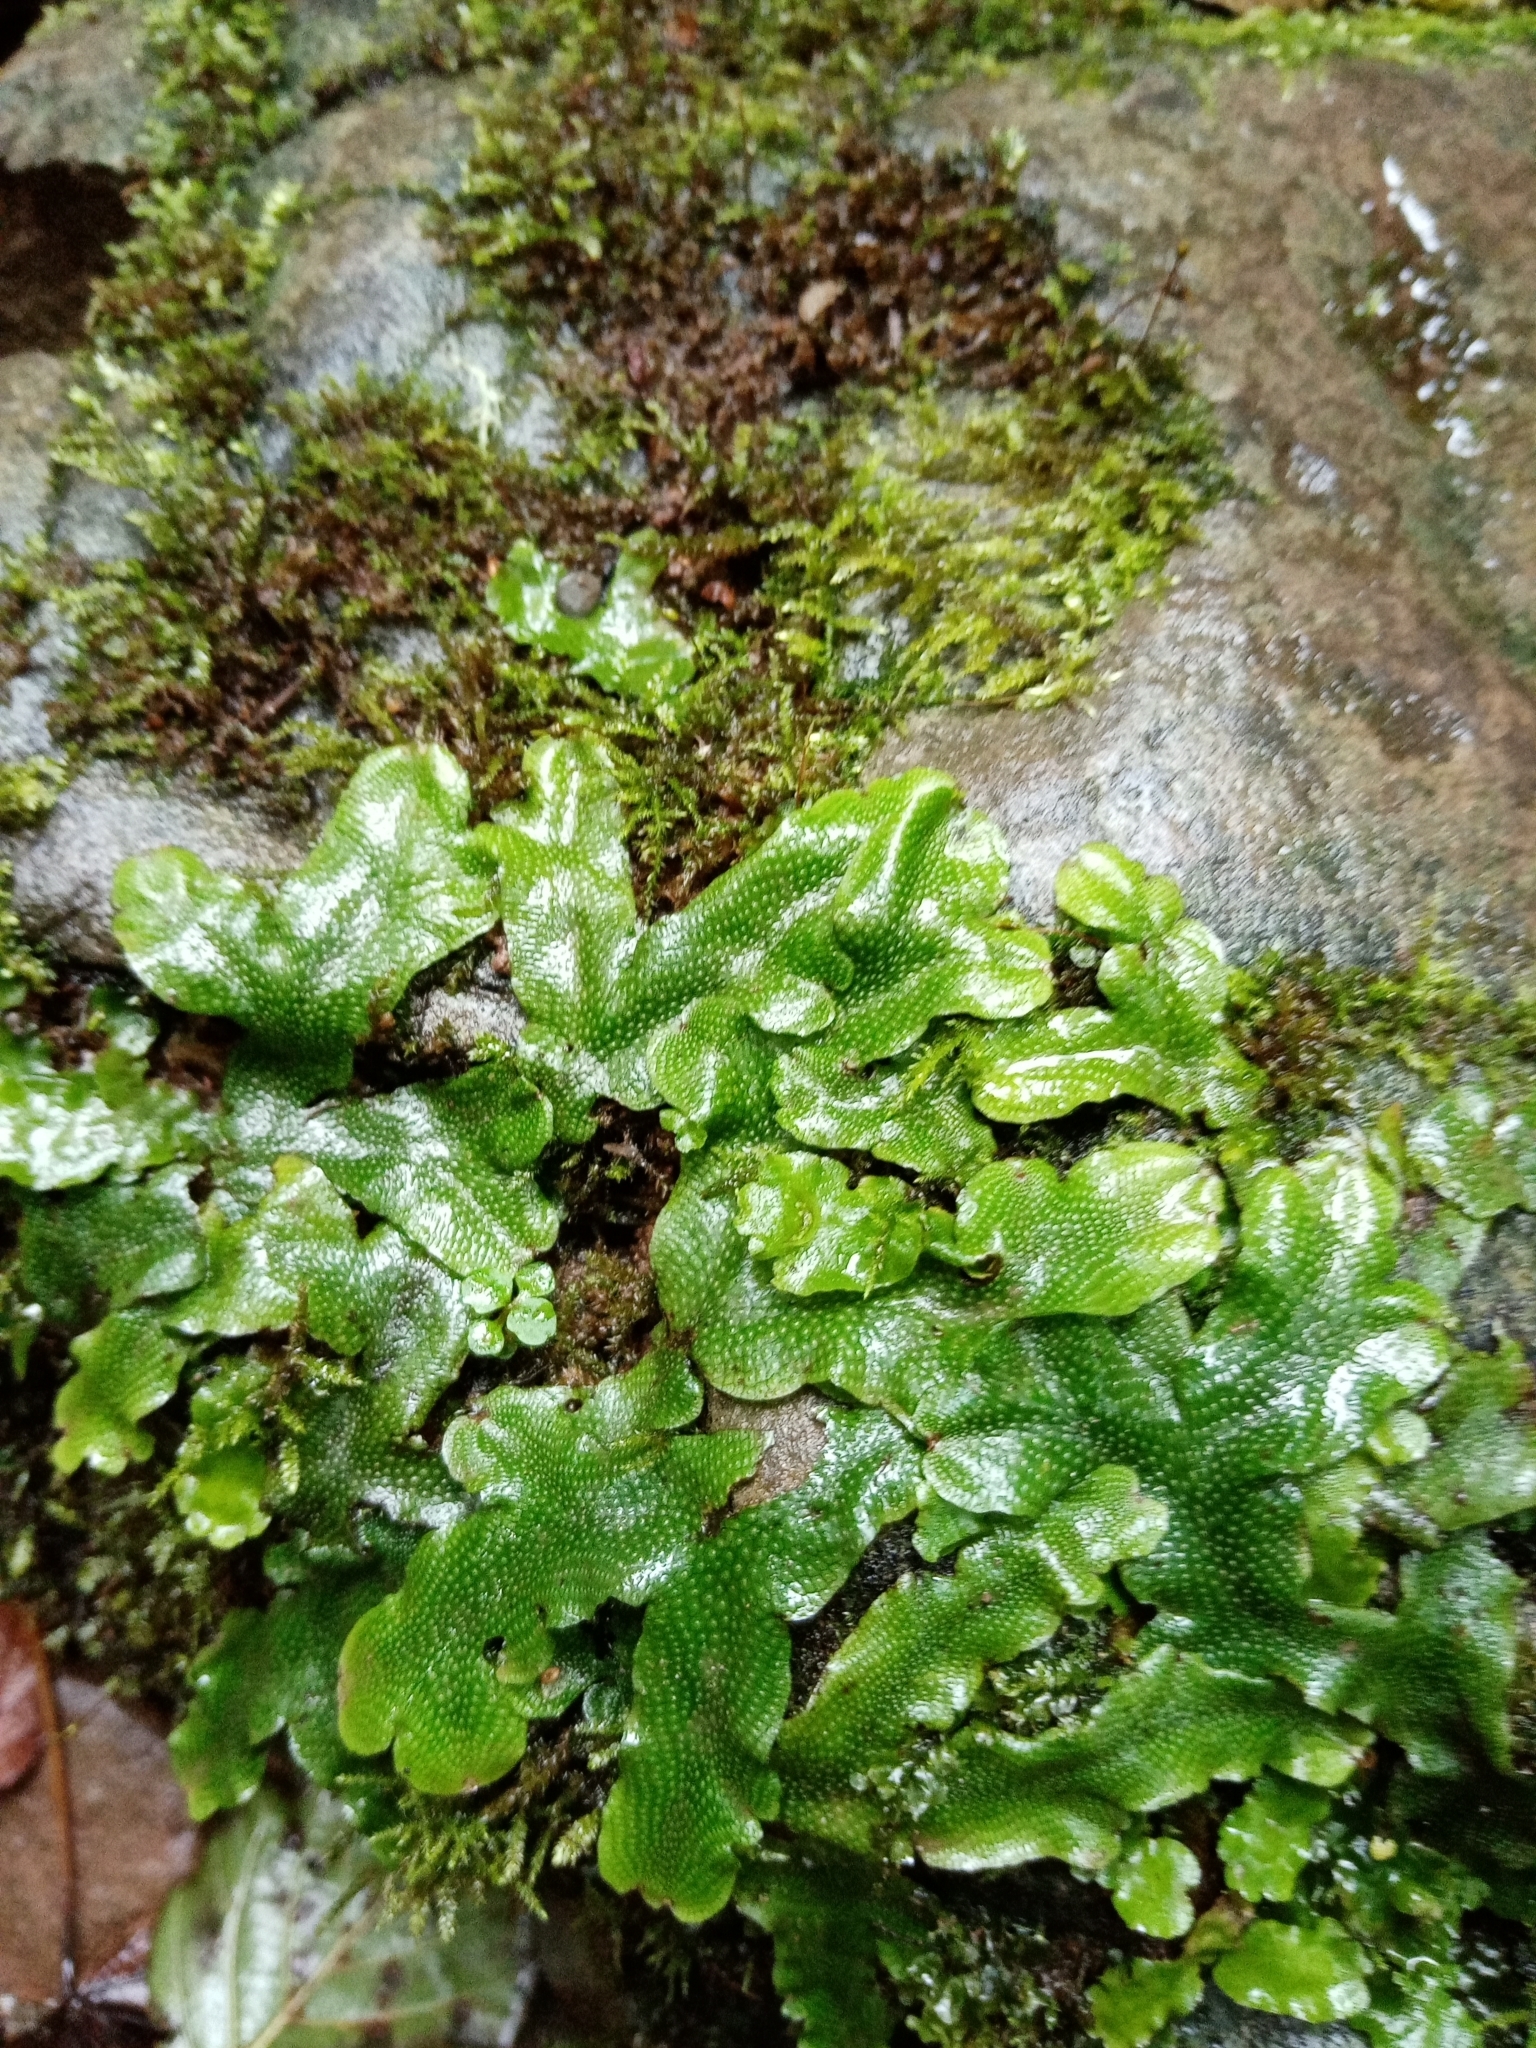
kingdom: Plantae
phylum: Marchantiophyta
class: Marchantiopsida
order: Marchantiales
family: Conocephalaceae
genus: Conocephalum
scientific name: Conocephalum conicum
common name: Great scented liverwort
